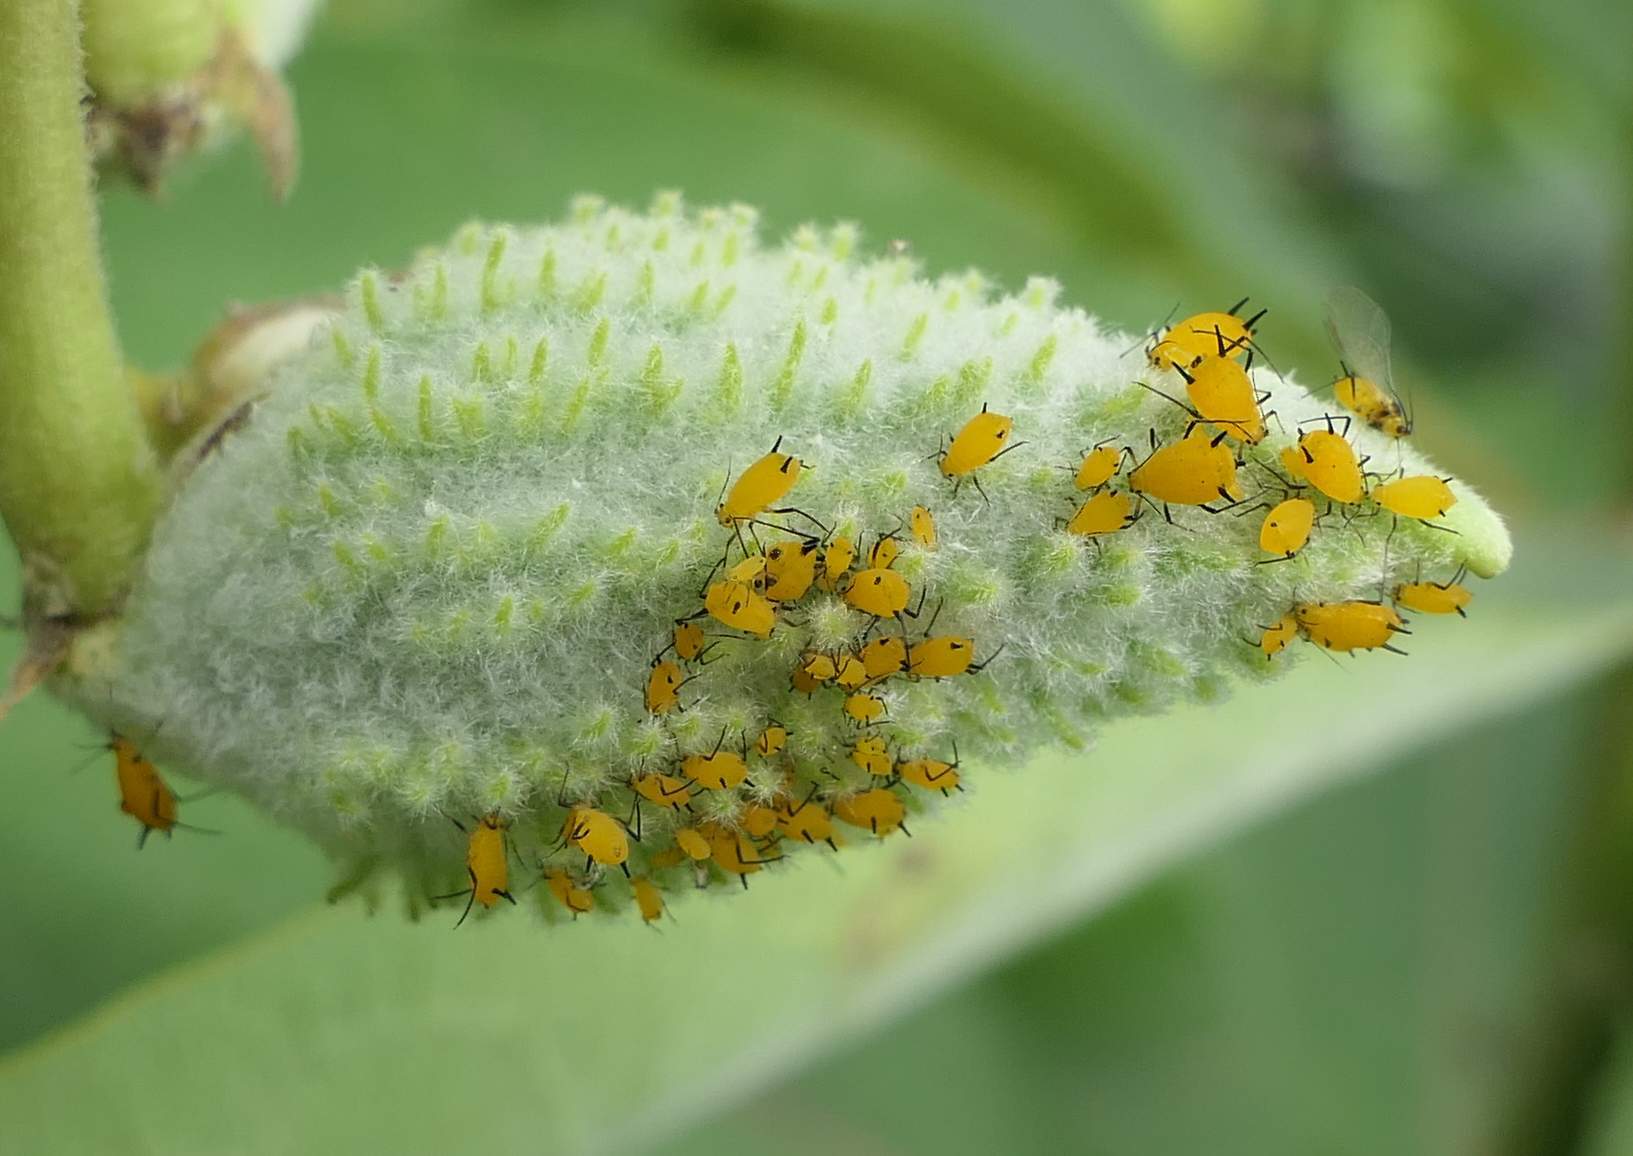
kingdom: Animalia
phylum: Arthropoda
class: Insecta
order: Hemiptera
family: Aphididae
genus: Aphis
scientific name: Aphis nerii
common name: Oleander aphid
